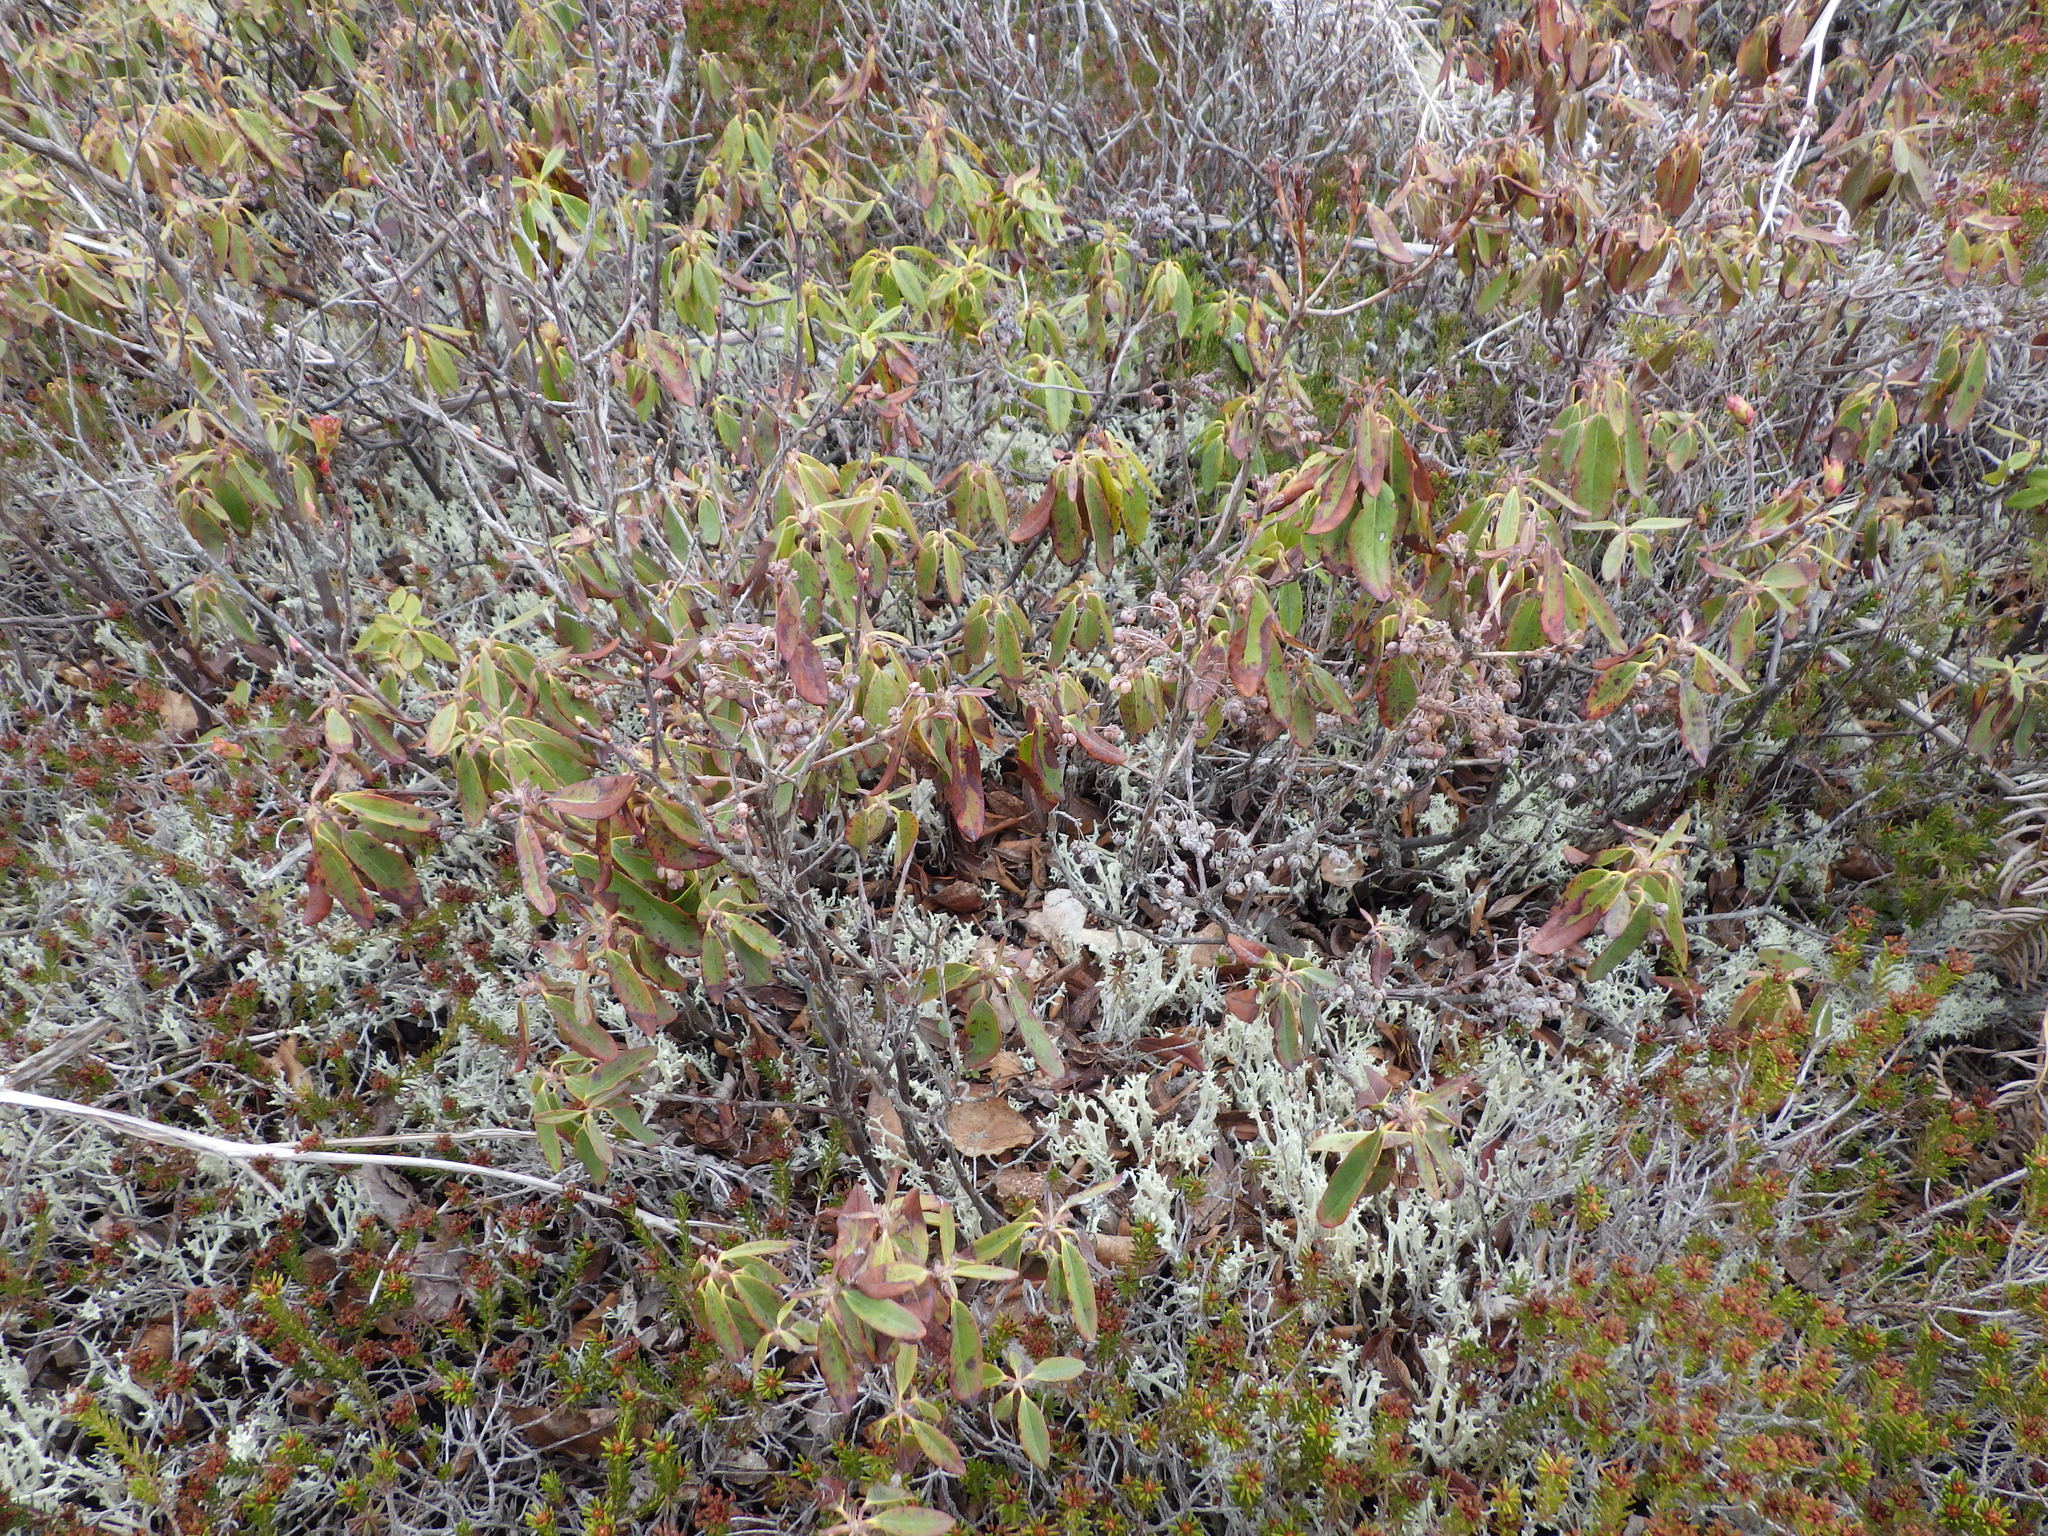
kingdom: Plantae
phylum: Tracheophyta
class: Magnoliopsida
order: Ericales
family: Ericaceae
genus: Kalmia
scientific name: Kalmia angustifolia
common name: Sheep-laurel
